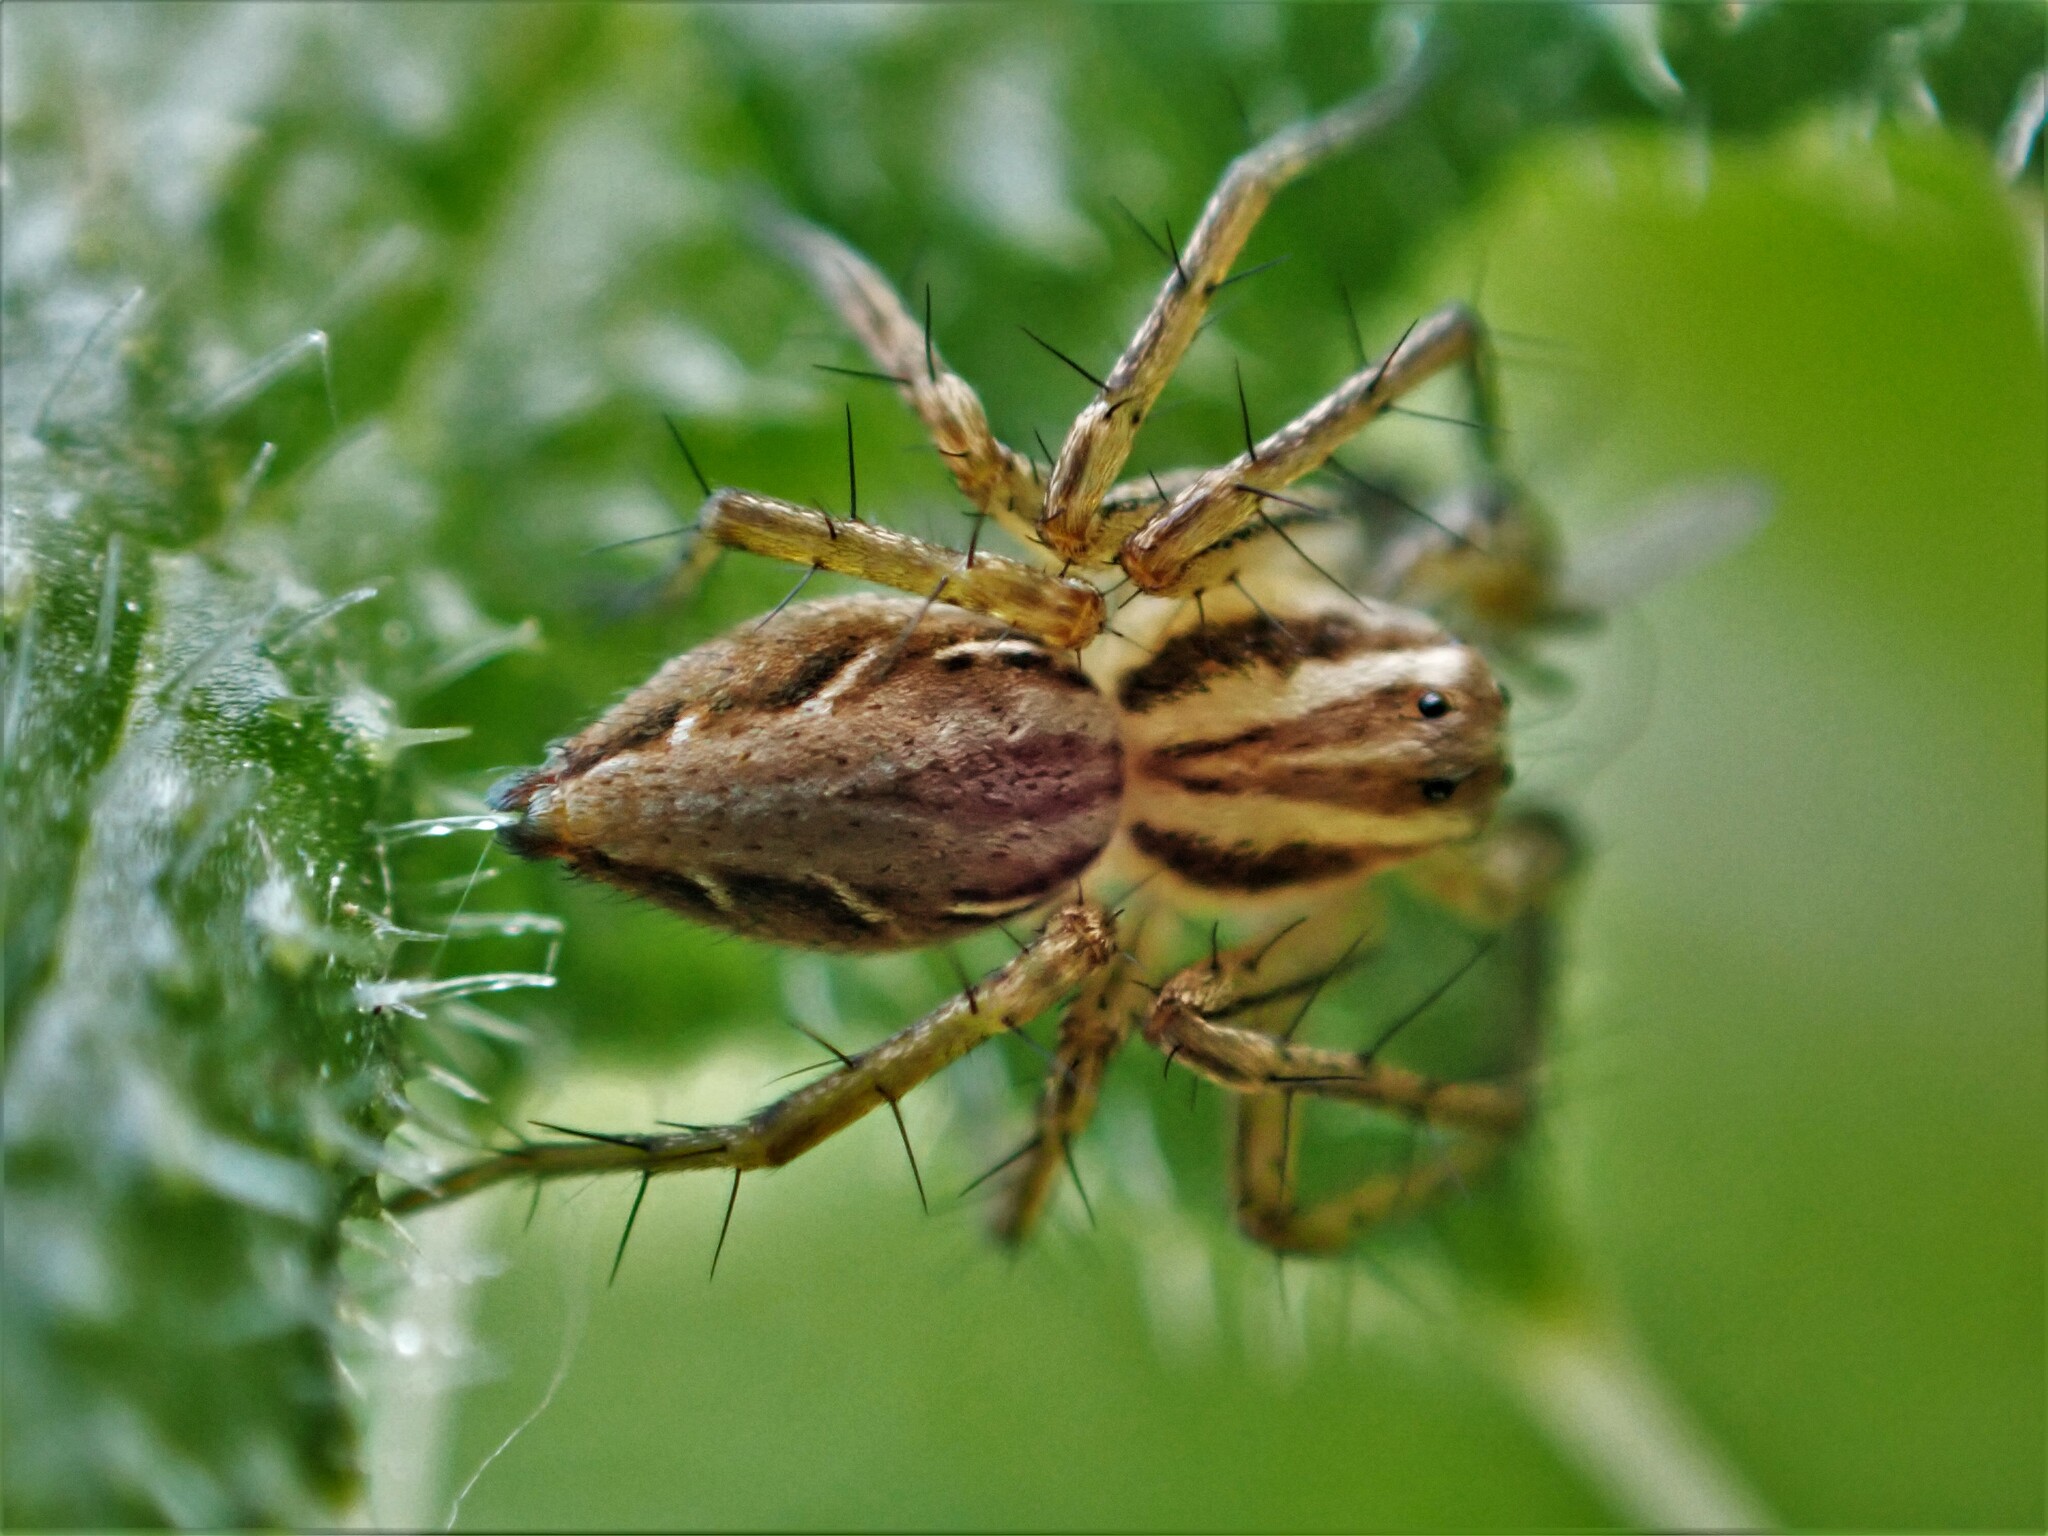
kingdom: Animalia
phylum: Arthropoda
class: Arachnida
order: Araneae
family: Oxyopidae
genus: Oxyopes
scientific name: Oxyopes gracilipes
